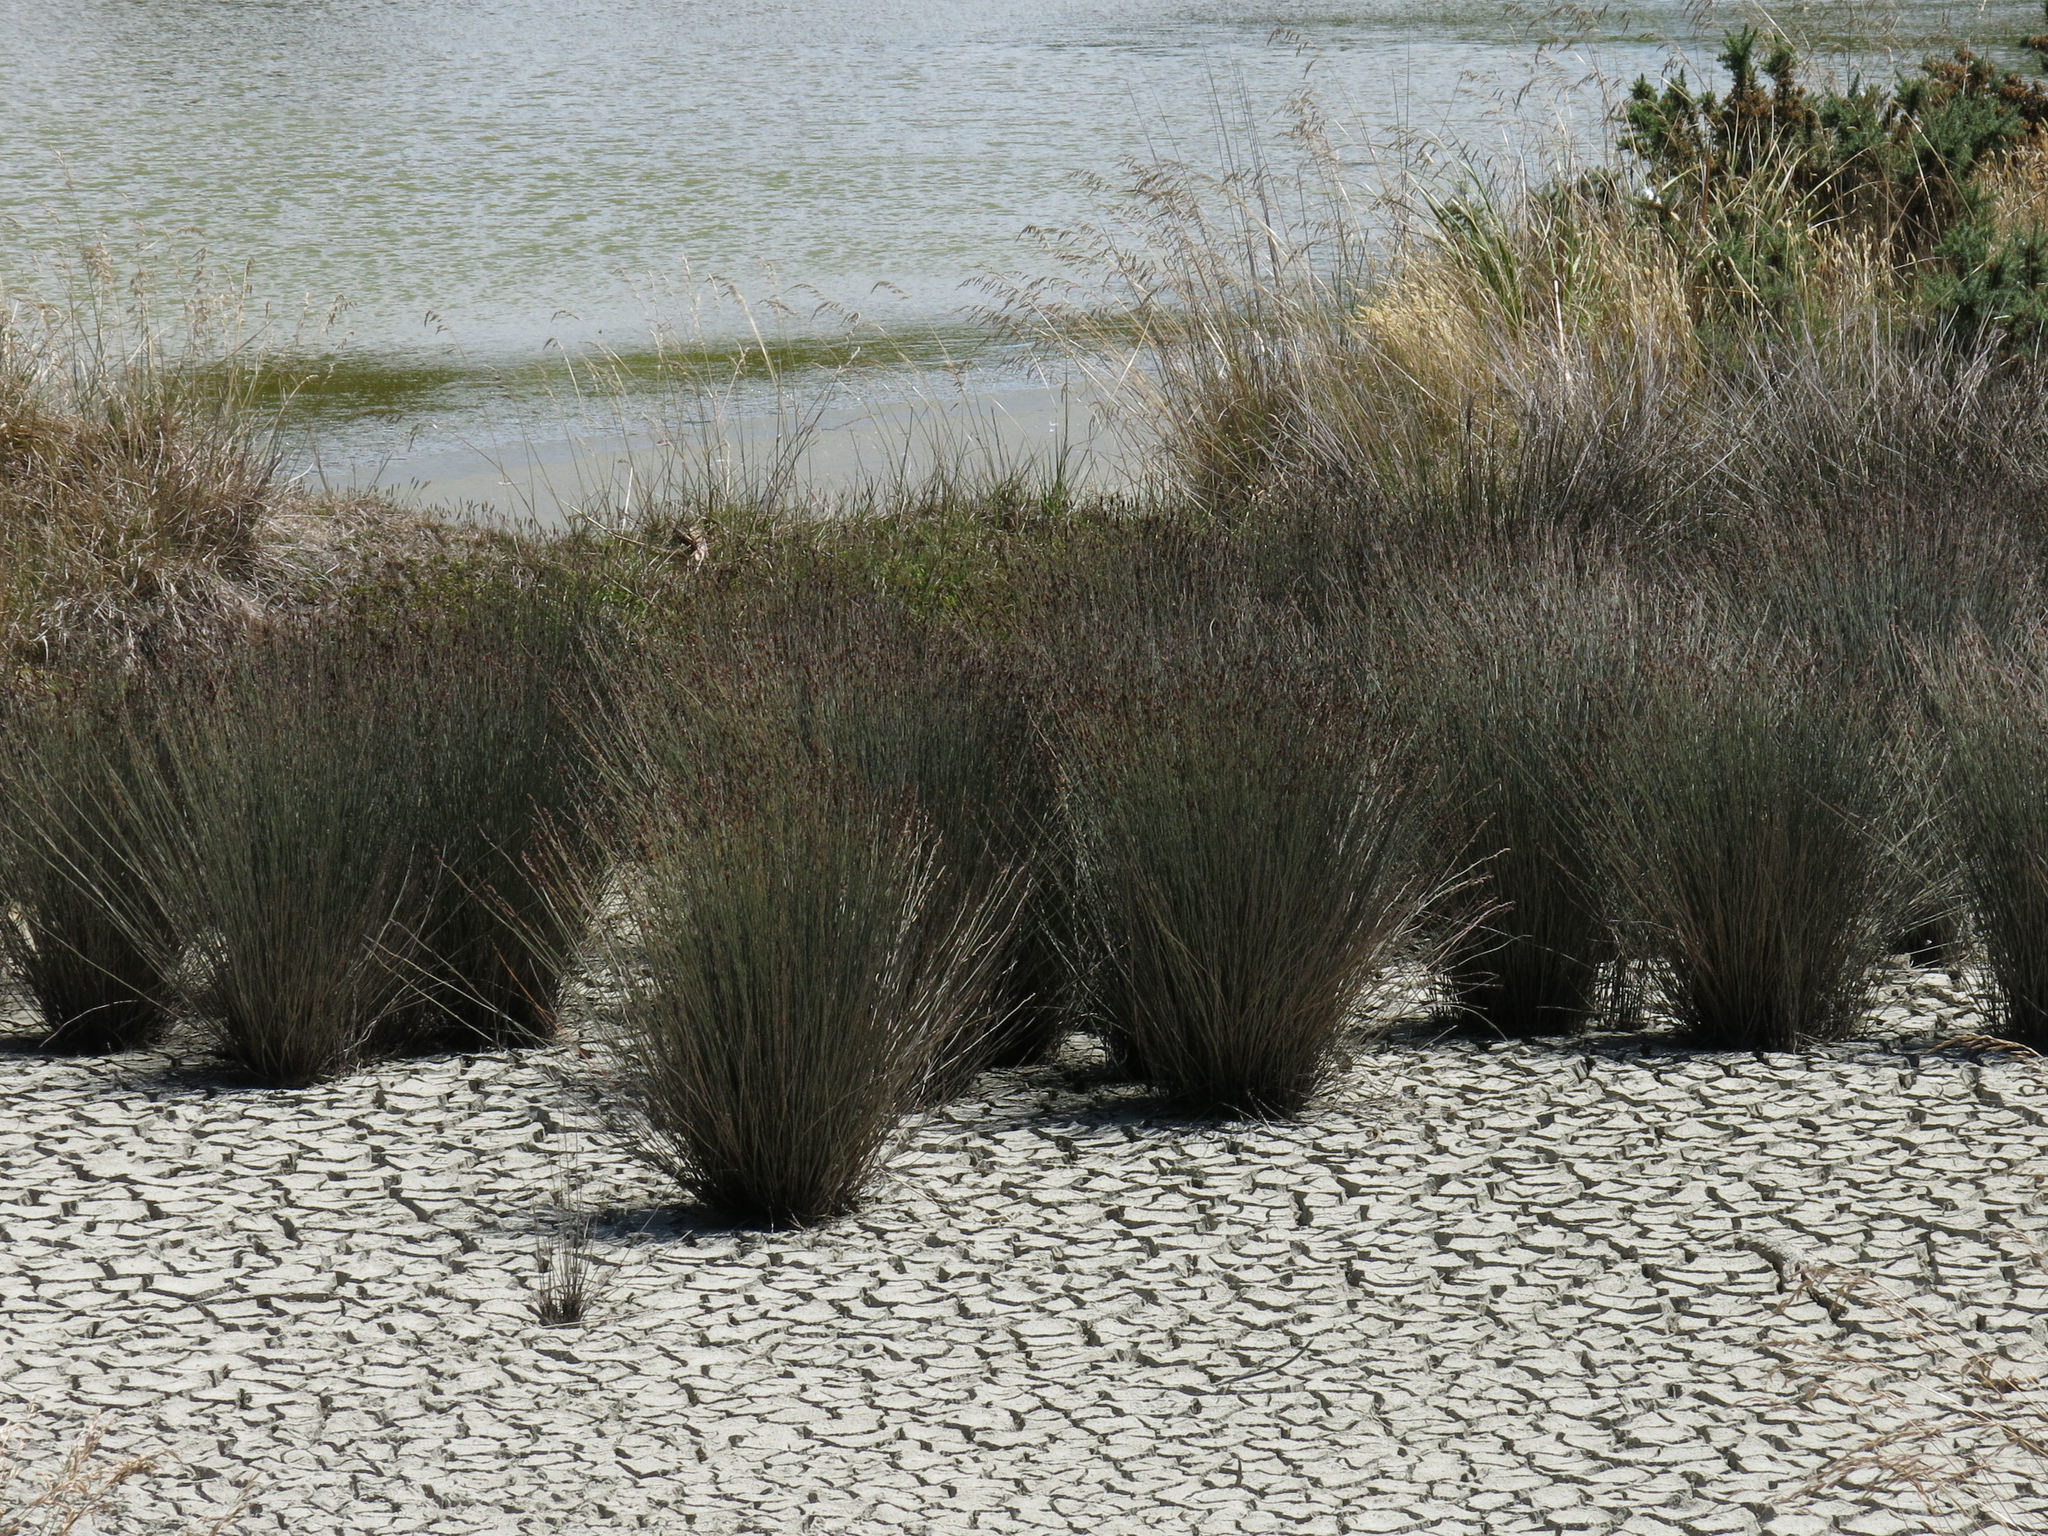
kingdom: Plantae
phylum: Tracheophyta
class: Liliopsida
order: Poales
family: Restionaceae
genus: Apodasmia
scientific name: Apodasmia similis
